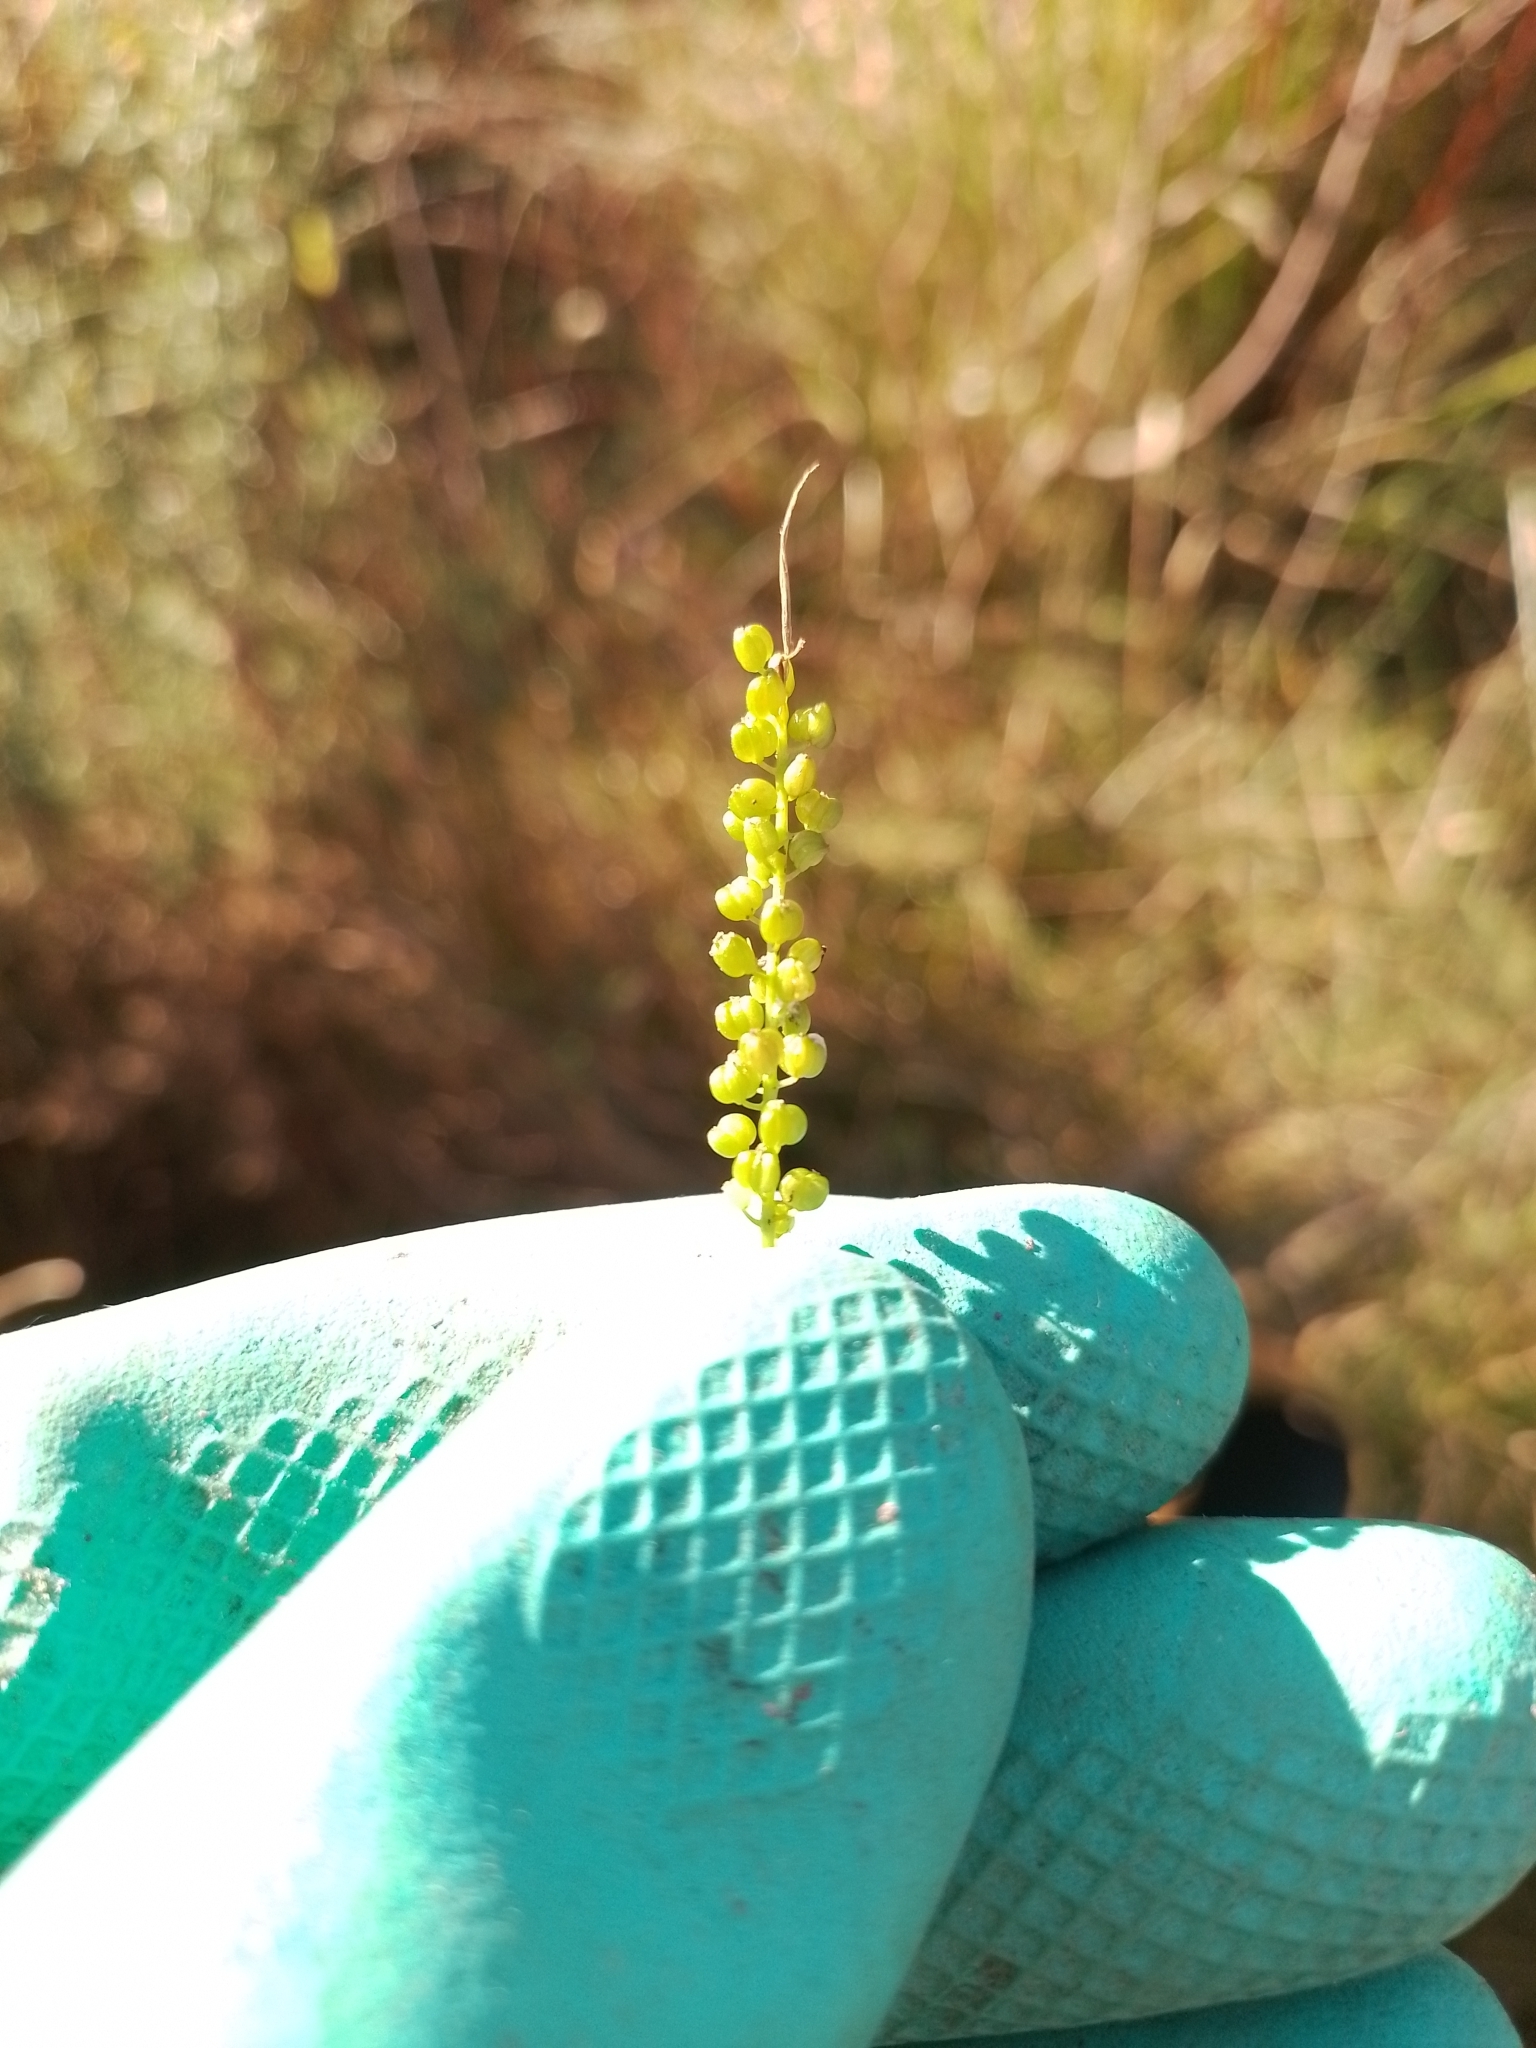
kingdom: Plantae
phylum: Tracheophyta
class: Liliopsida
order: Alismatales
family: Juncaginaceae
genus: Triglochin
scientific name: Triglochin striata
